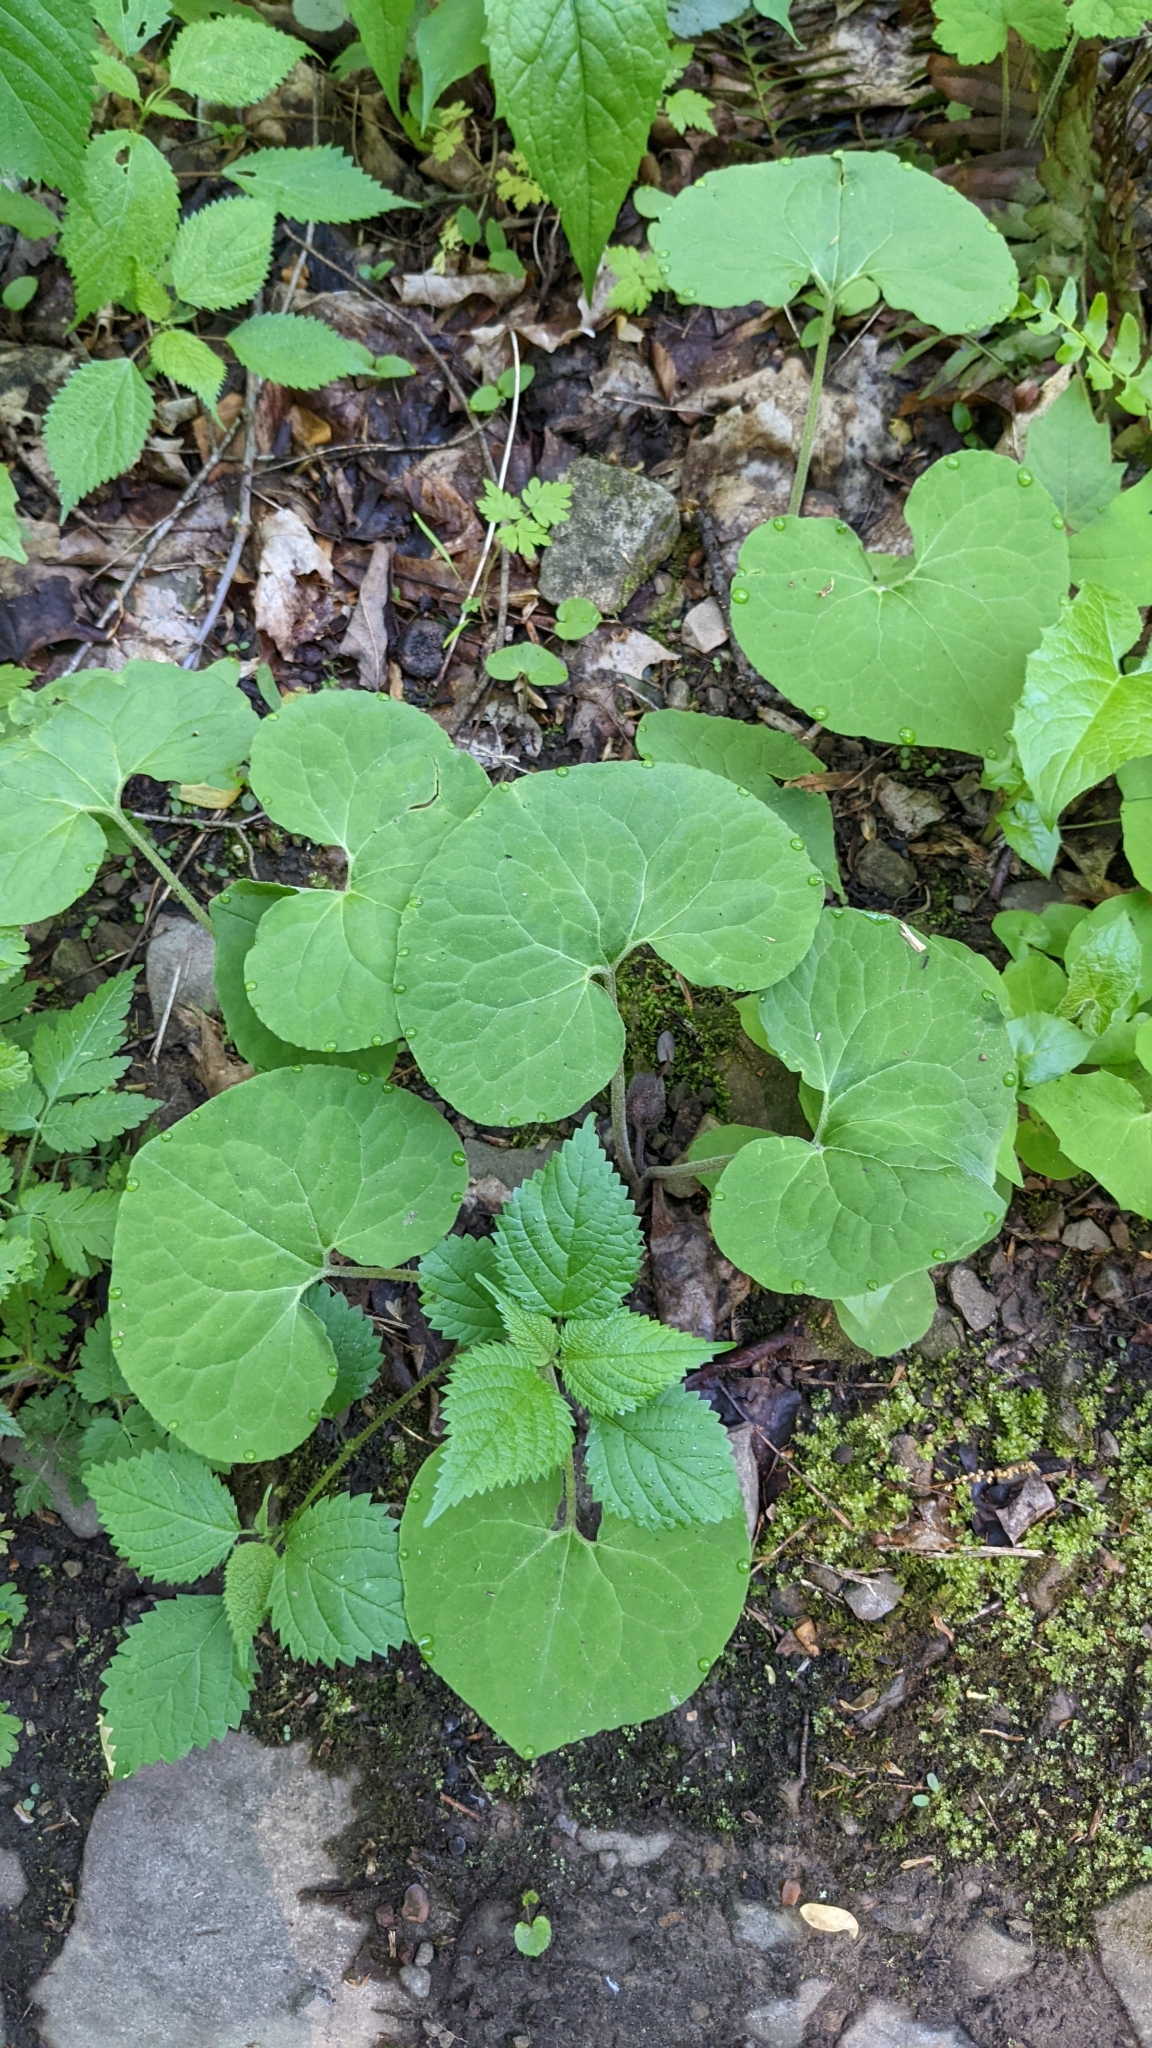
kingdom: Plantae
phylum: Tracheophyta
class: Magnoliopsida
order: Piperales
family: Aristolochiaceae
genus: Asarum
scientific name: Asarum canadense
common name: Wild ginger
